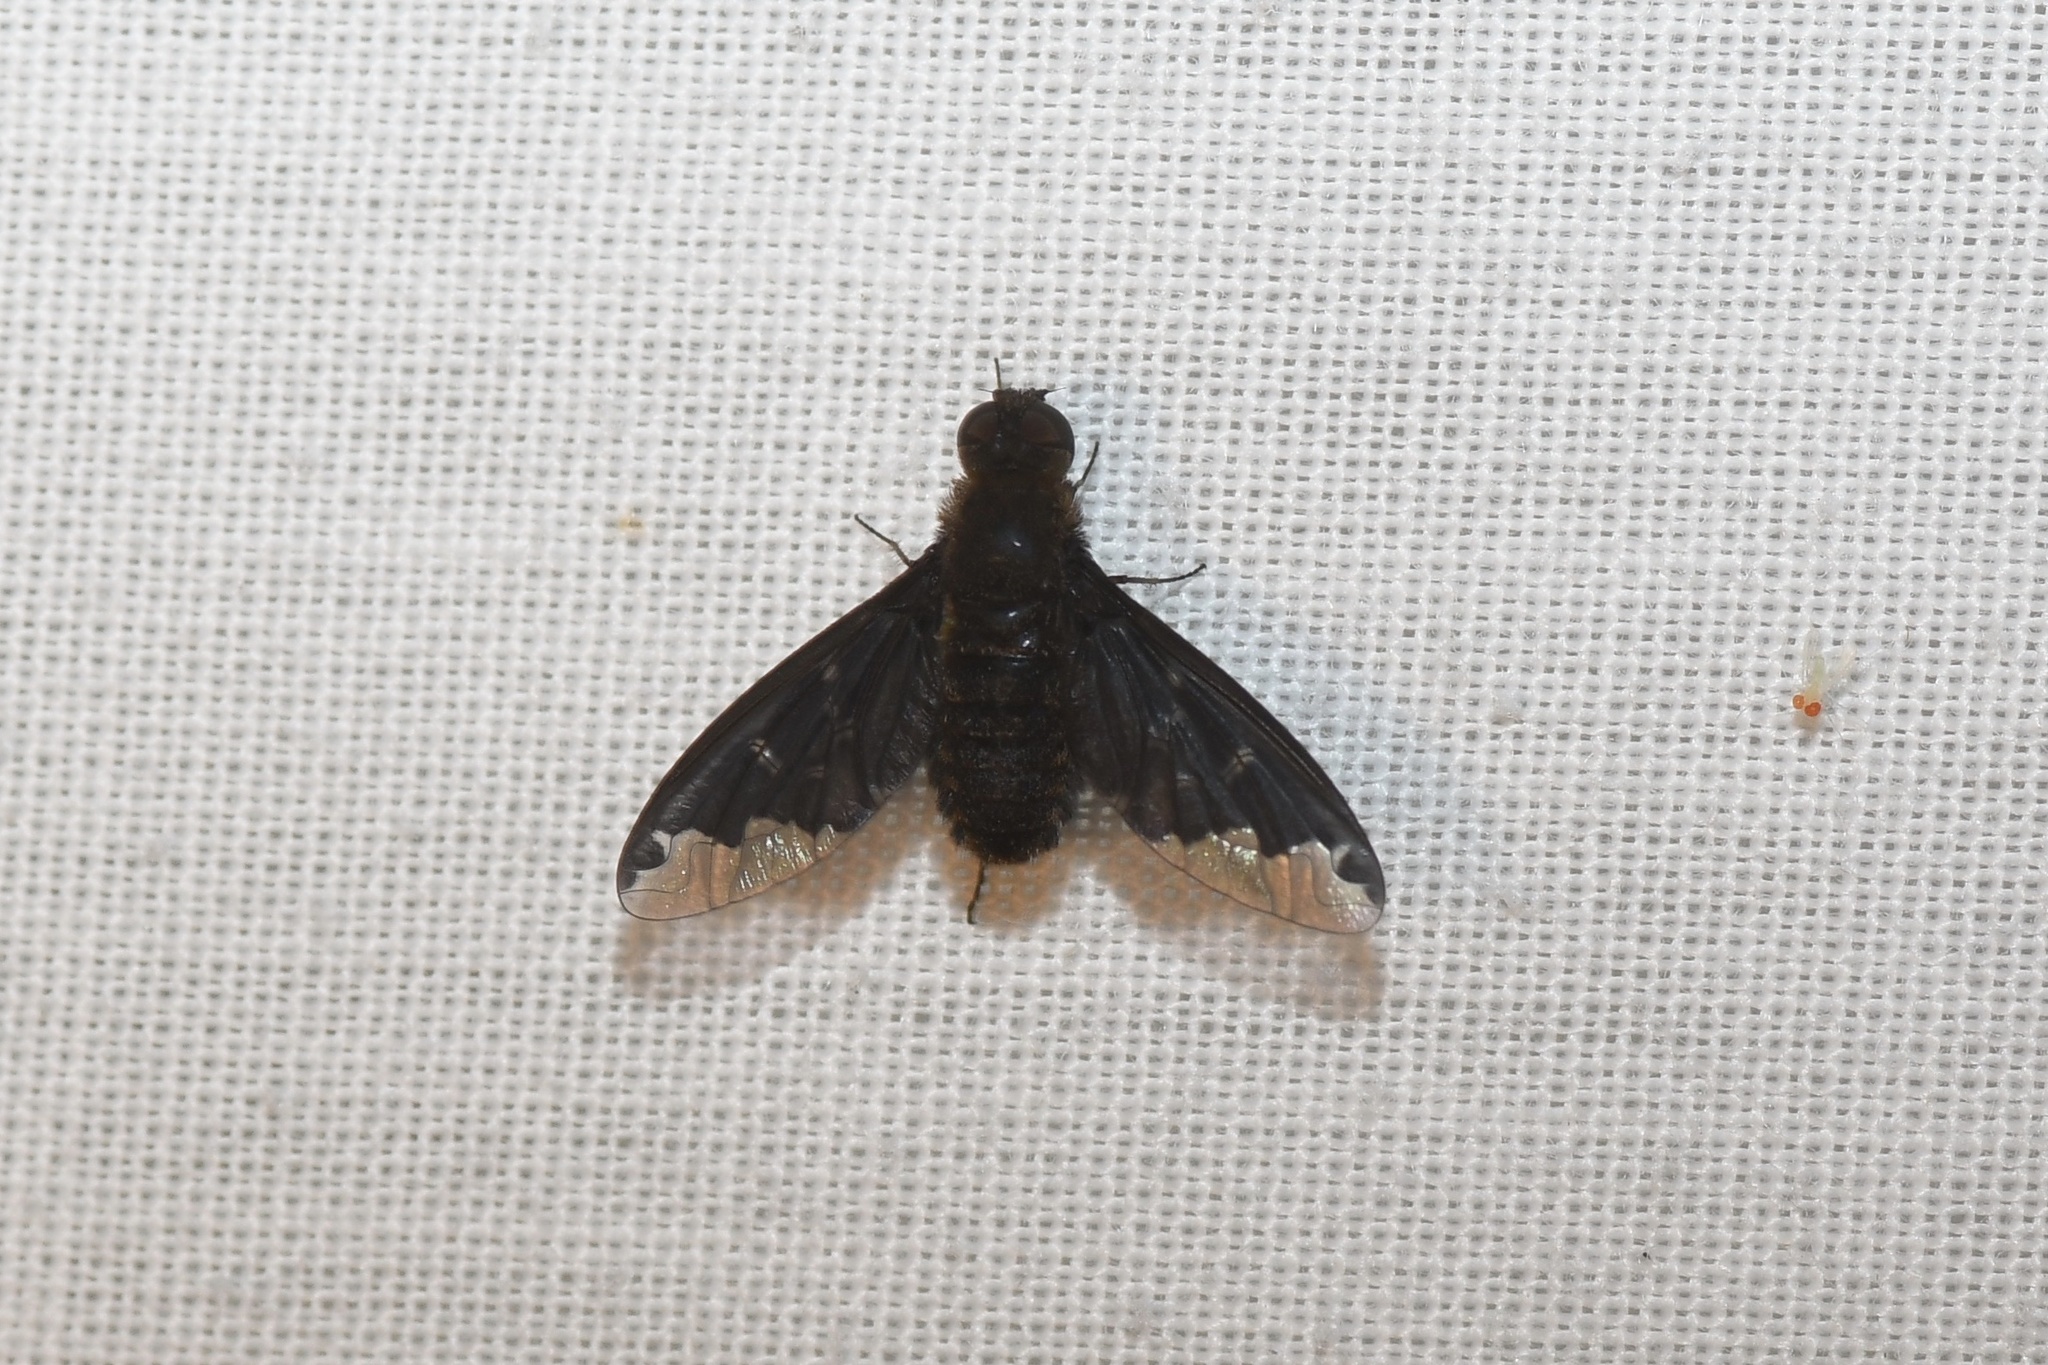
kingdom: Animalia
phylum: Arthropoda
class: Insecta
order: Diptera
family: Bombyliidae
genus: Hemipenthes
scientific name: Hemipenthes sinuosus
